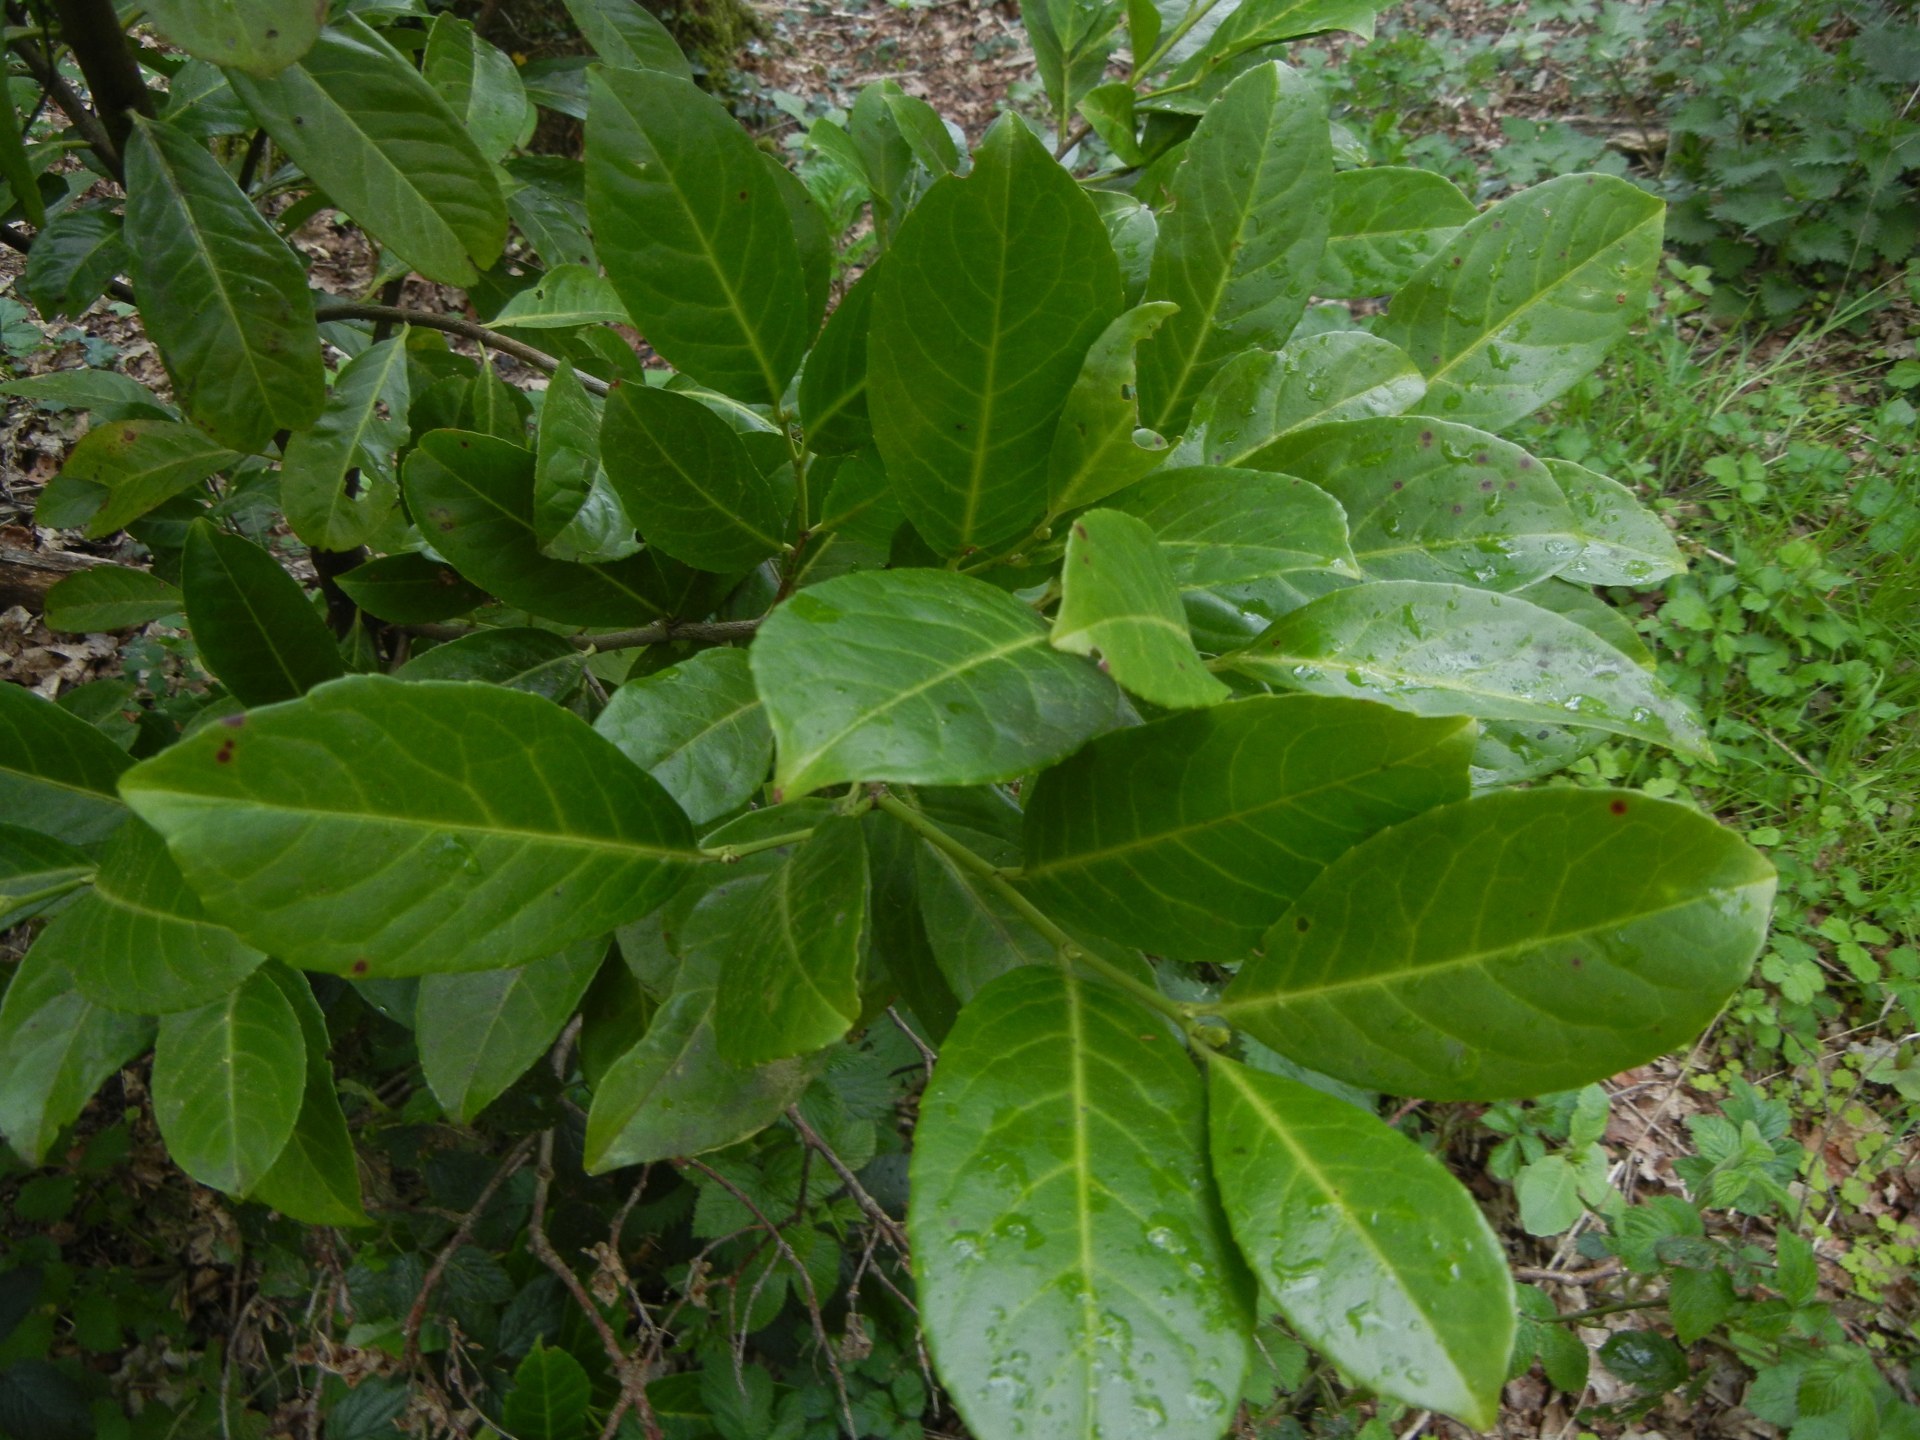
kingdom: Plantae
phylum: Tracheophyta
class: Magnoliopsida
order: Rosales
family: Rosaceae
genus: Prunus
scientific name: Prunus laurocerasus
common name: Cherry laurel
